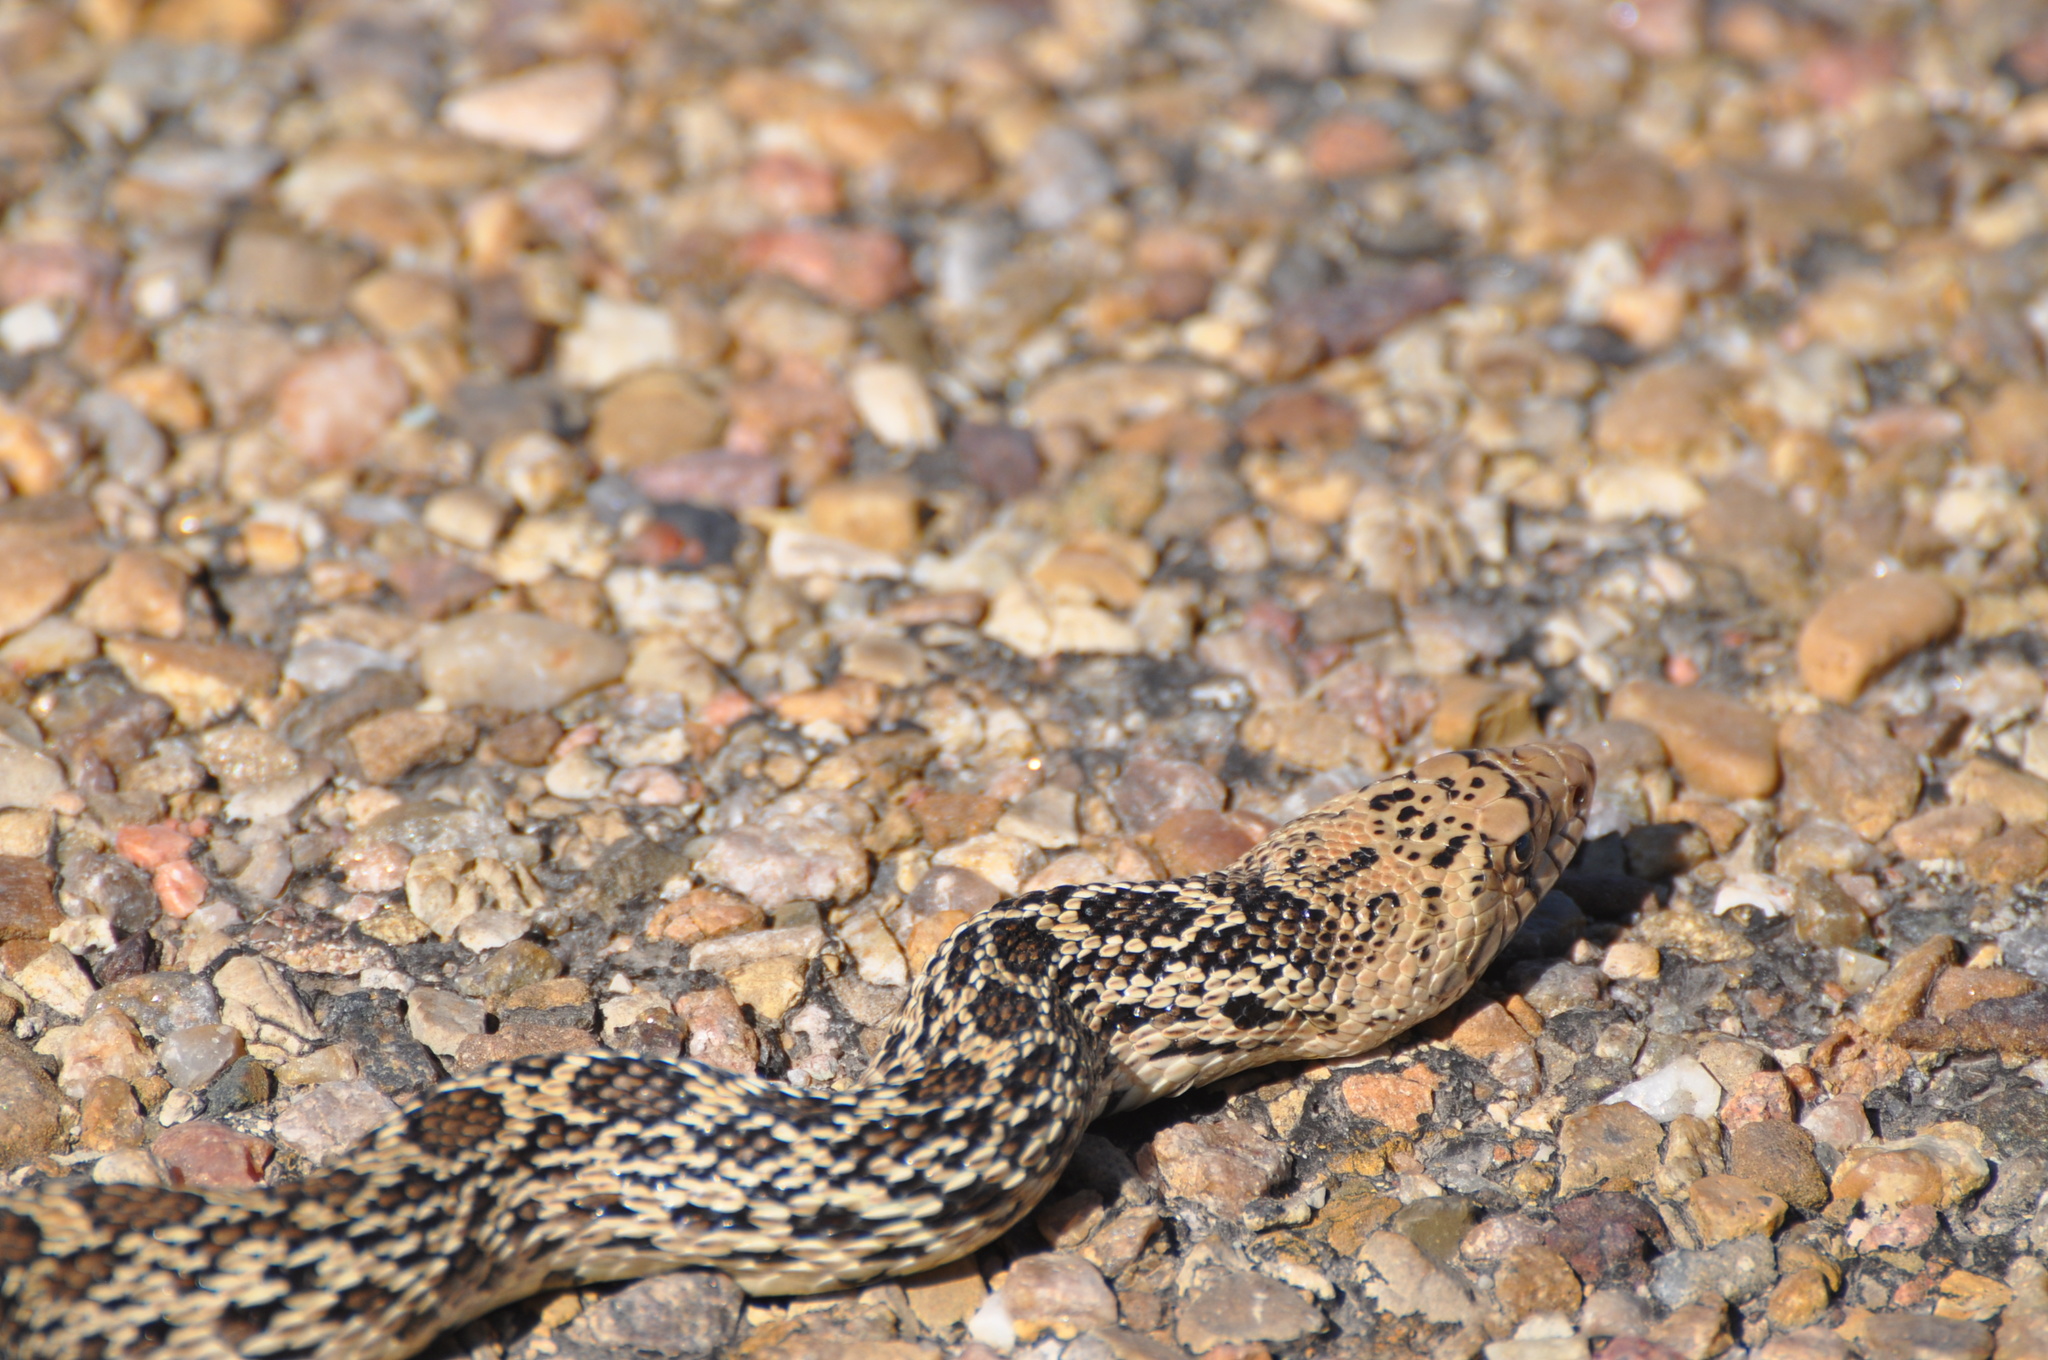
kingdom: Animalia
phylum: Chordata
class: Squamata
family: Colubridae
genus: Pituophis
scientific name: Pituophis catenifer
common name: Gopher snake
